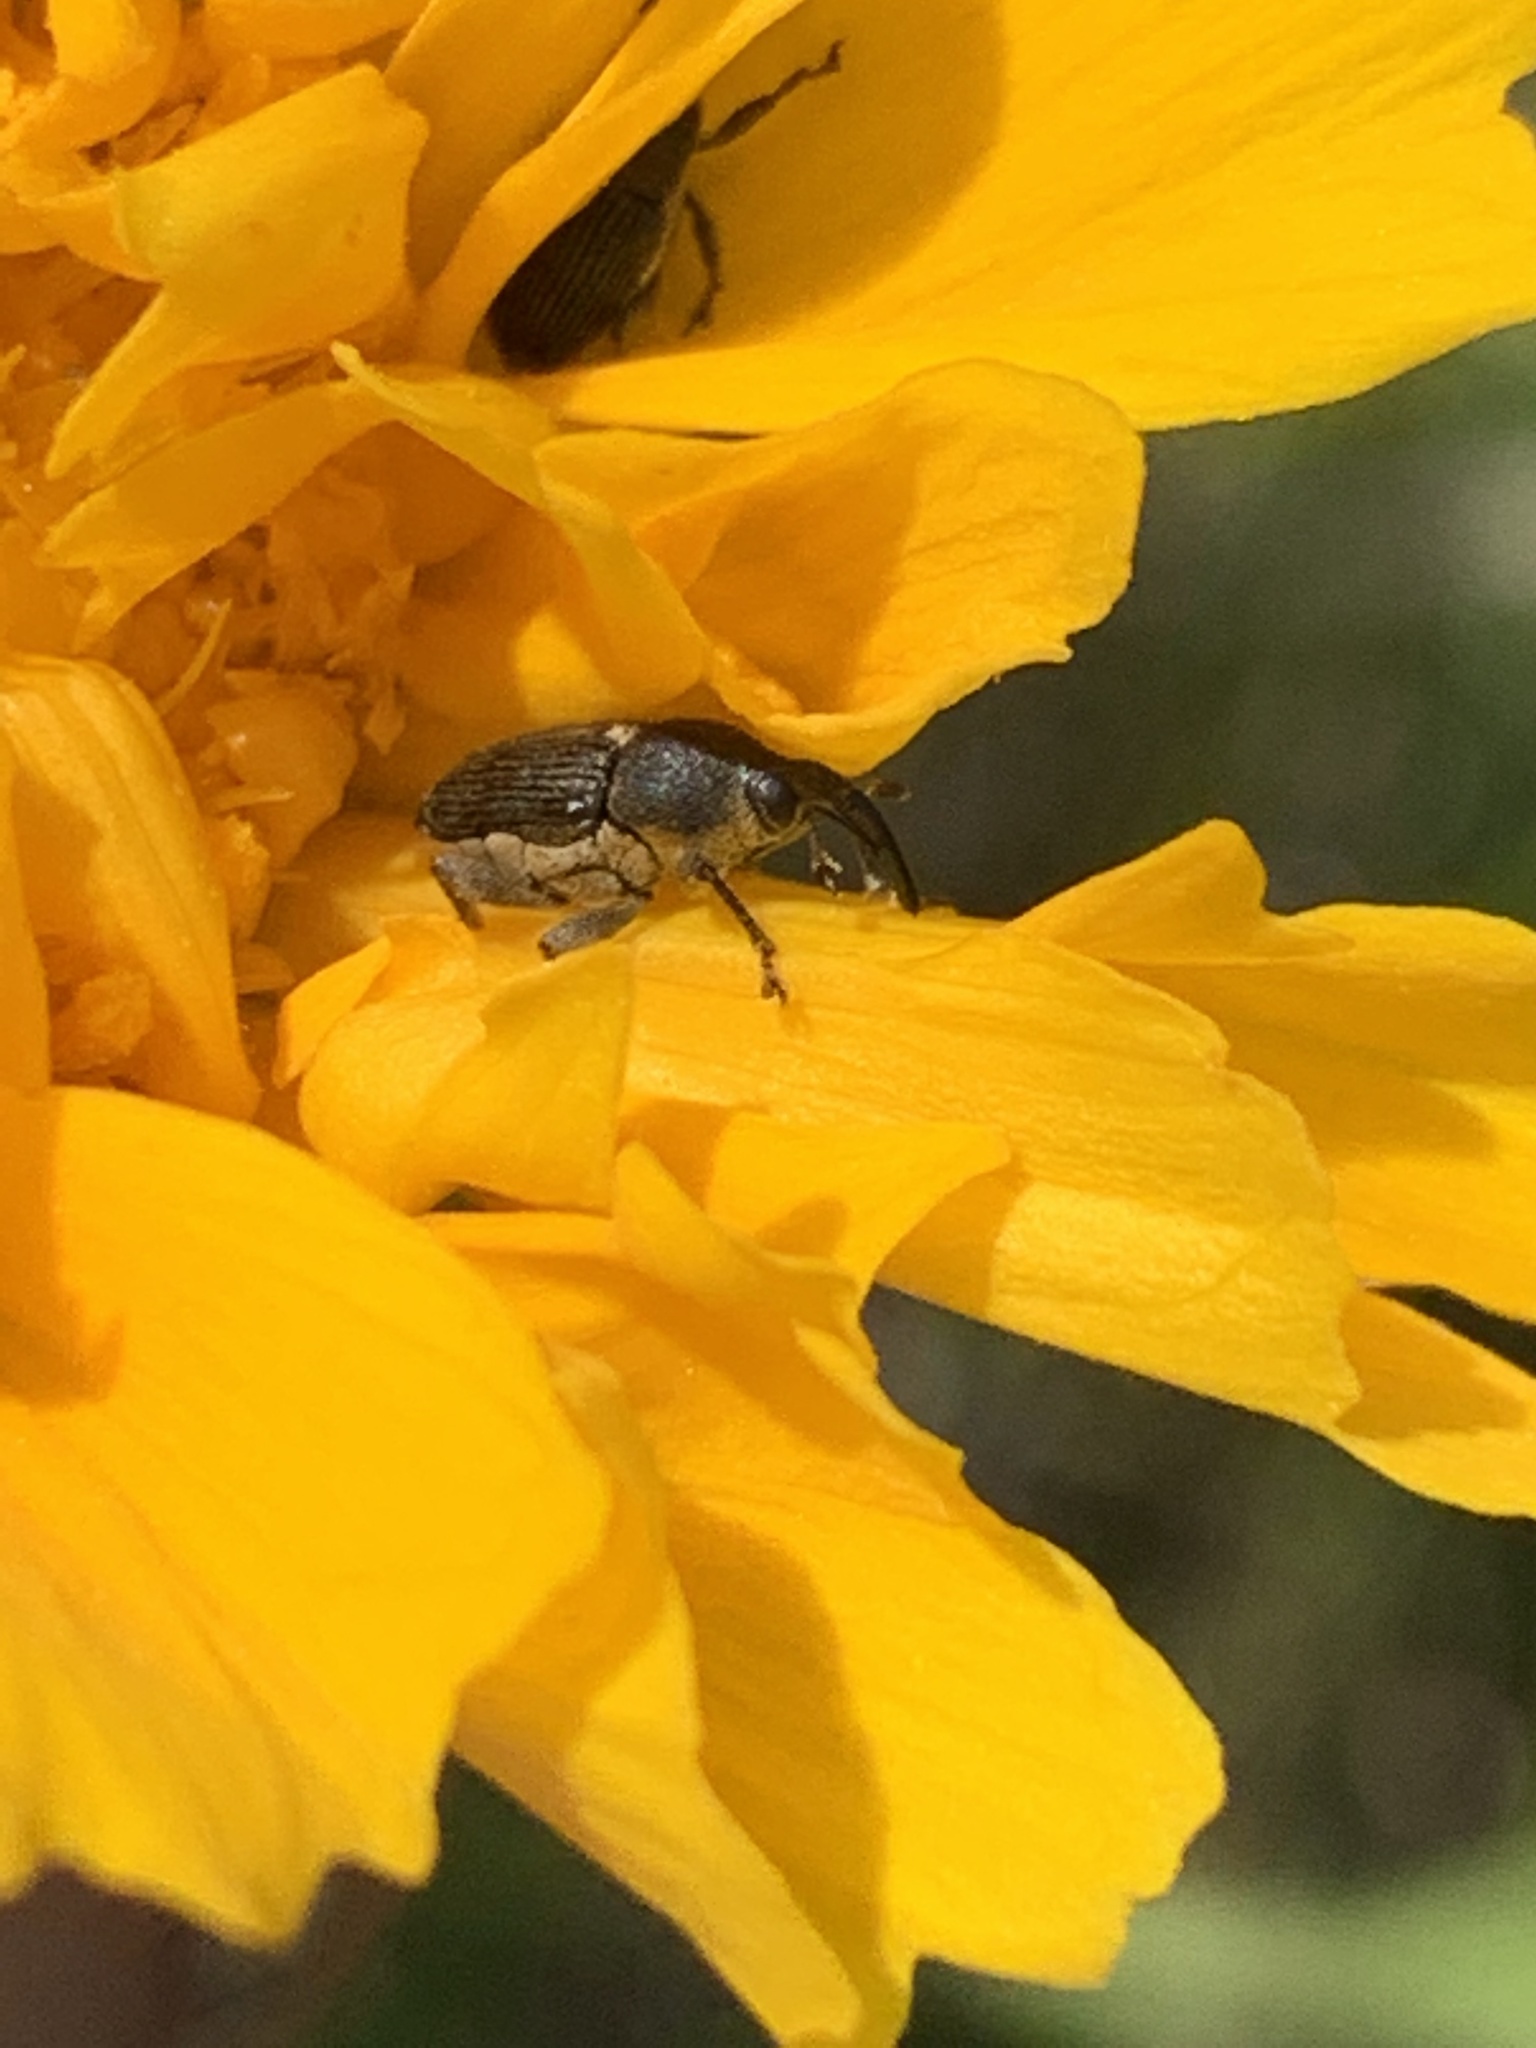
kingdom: Animalia
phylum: Arthropoda
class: Insecta
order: Coleoptera
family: Curculionidae
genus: Odontocorynus
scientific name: Odontocorynus salebrosus
